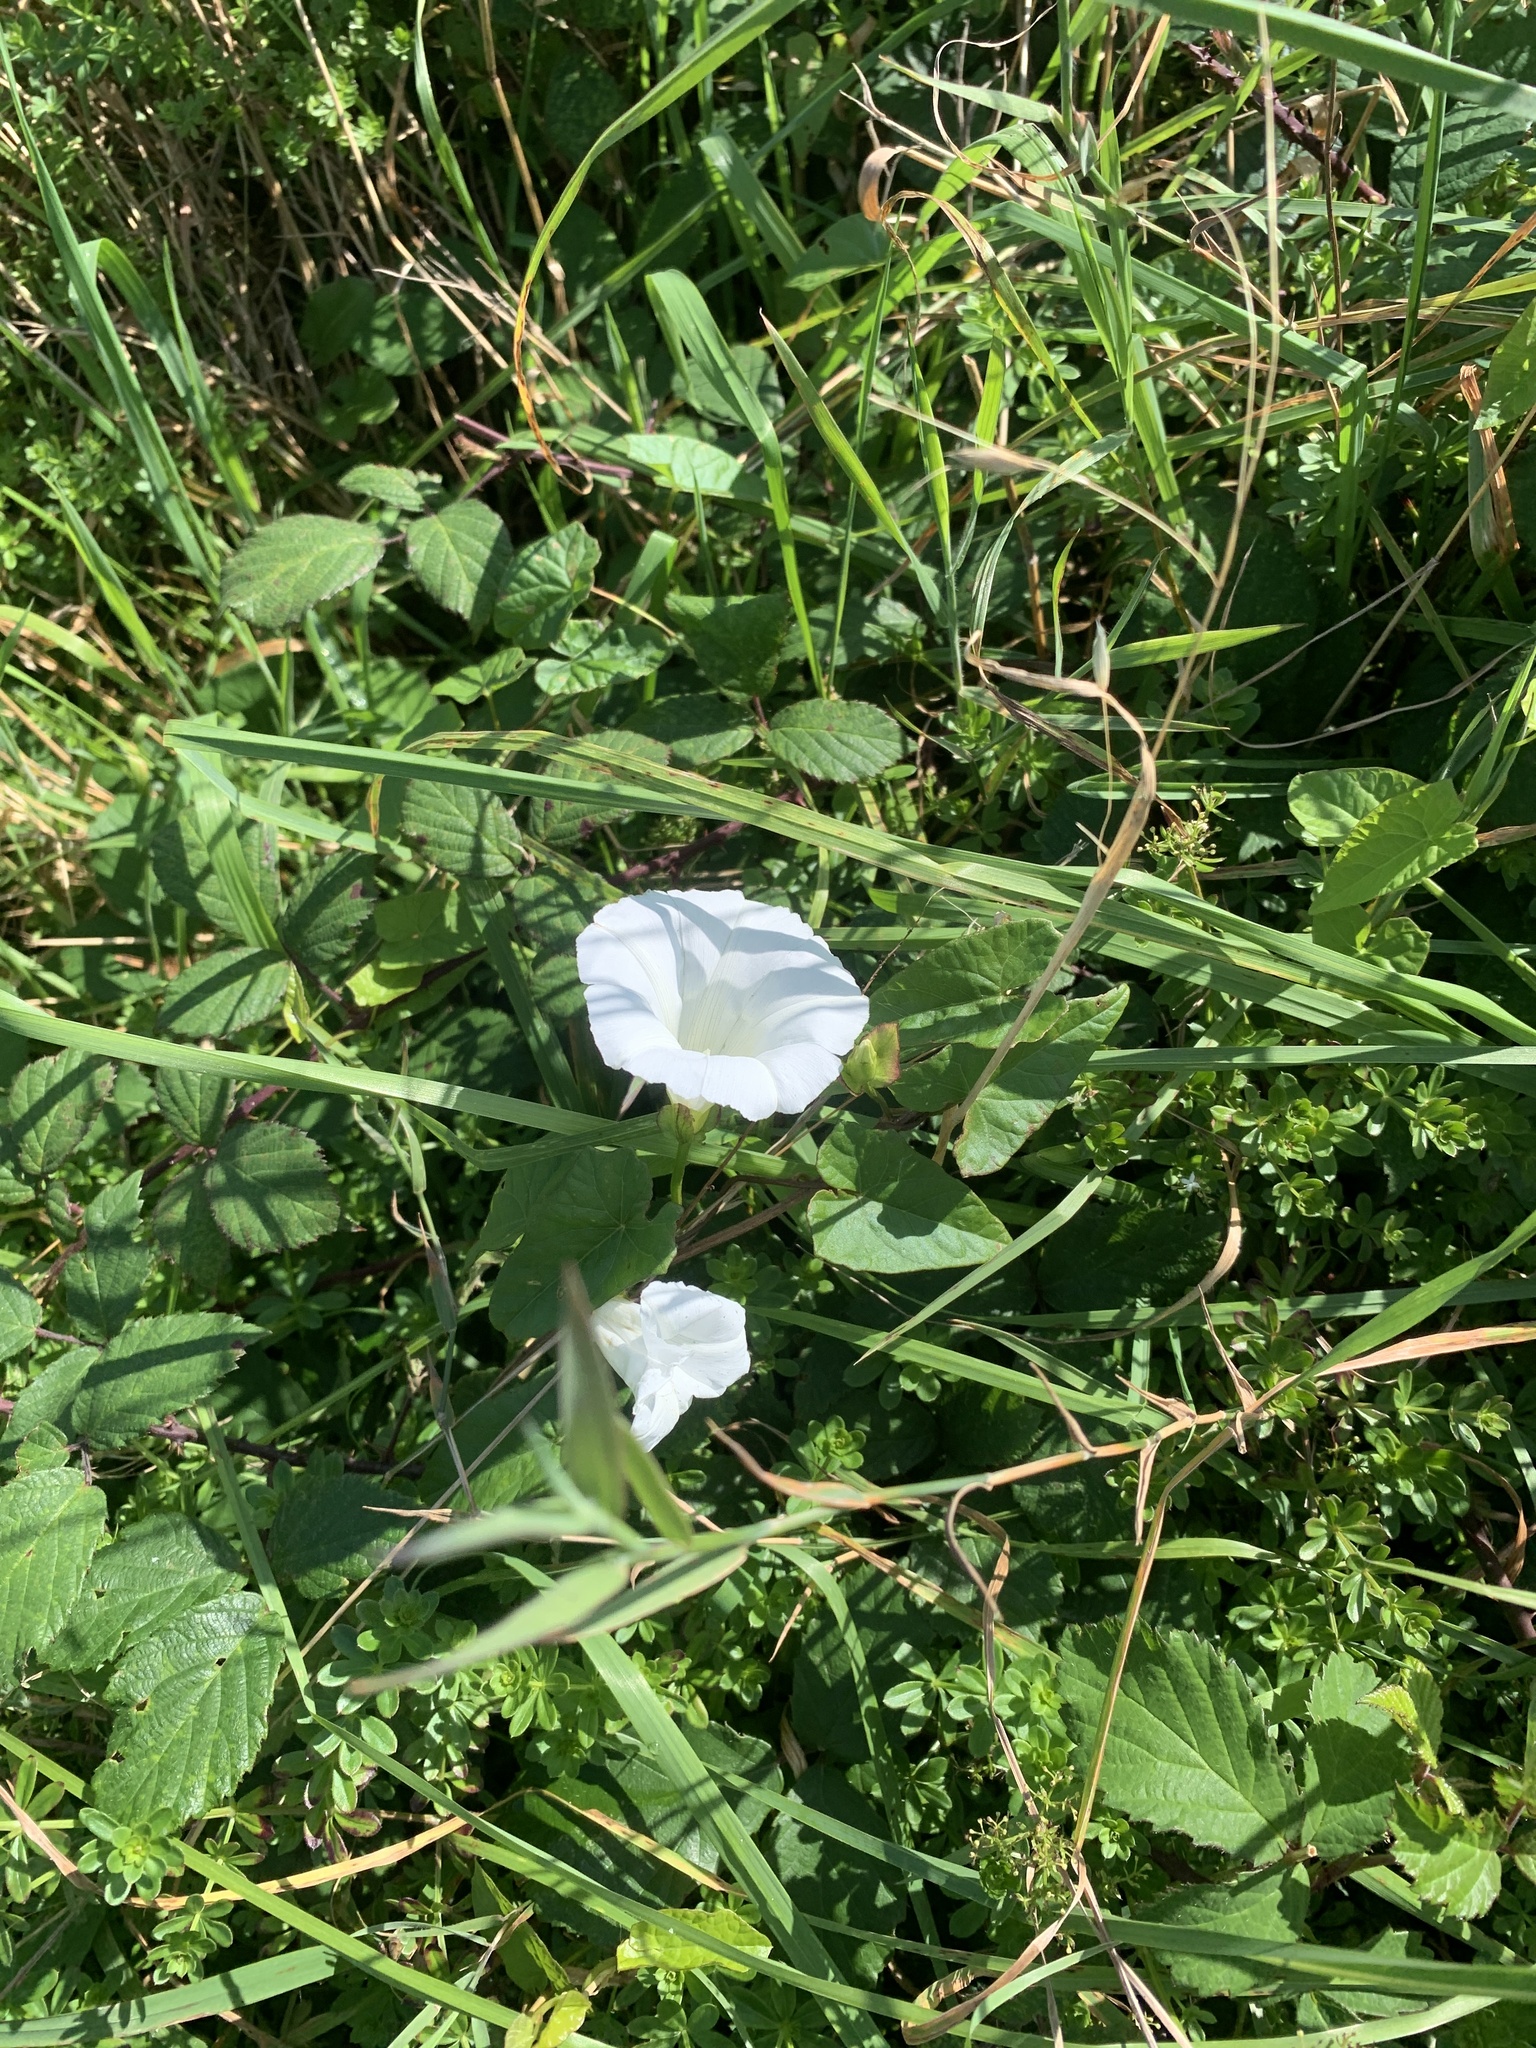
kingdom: Plantae
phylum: Tracheophyta
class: Magnoliopsida
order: Solanales
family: Convolvulaceae
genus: Calystegia
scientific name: Calystegia silvatica
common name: Large bindweed
